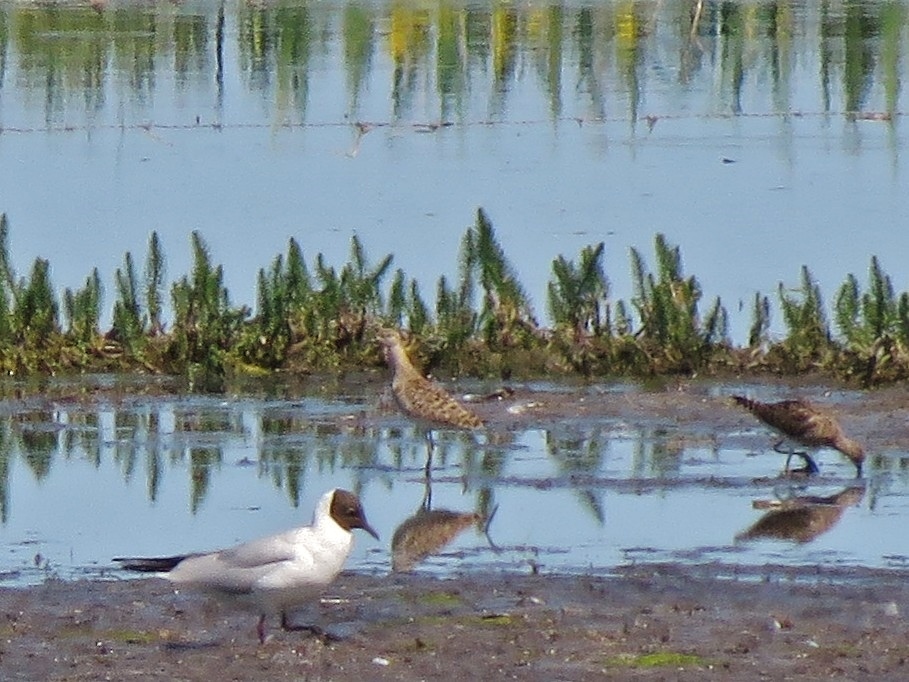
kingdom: Animalia
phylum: Chordata
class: Aves
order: Charadriiformes
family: Scolopacidae
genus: Calidris
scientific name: Calidris pugnax
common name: Ruff
